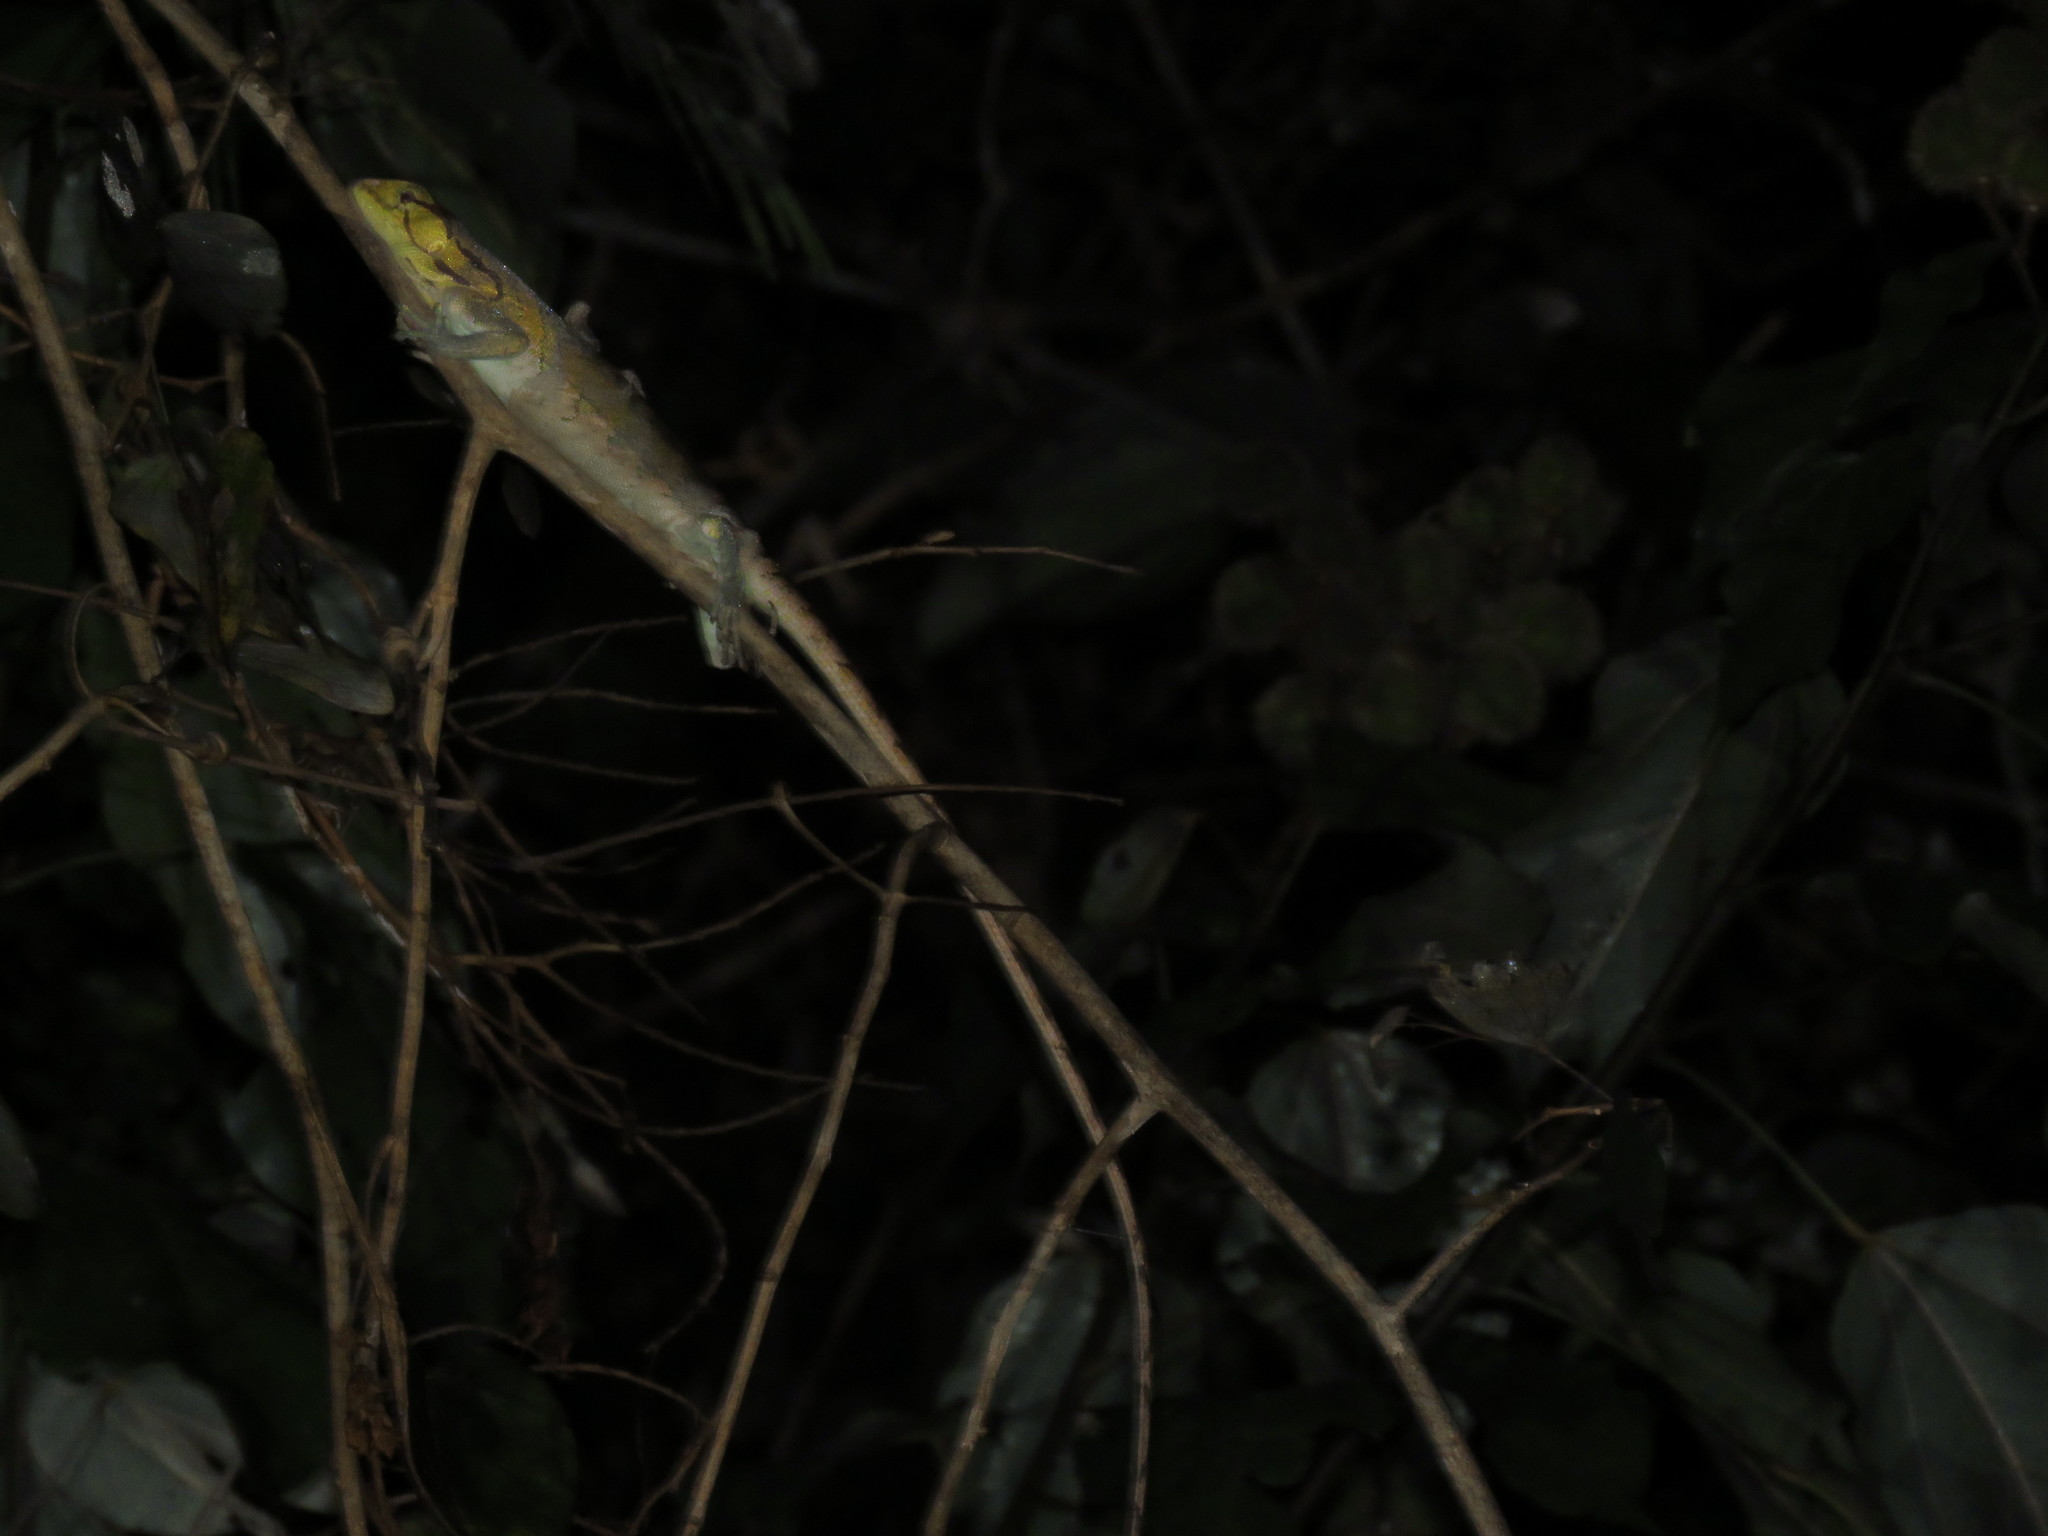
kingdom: Animalia
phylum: Chordata
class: Squamata
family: Polychrotidae
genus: Polychrus
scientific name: Polychrus liogaster
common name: Boulenger's bush anole
